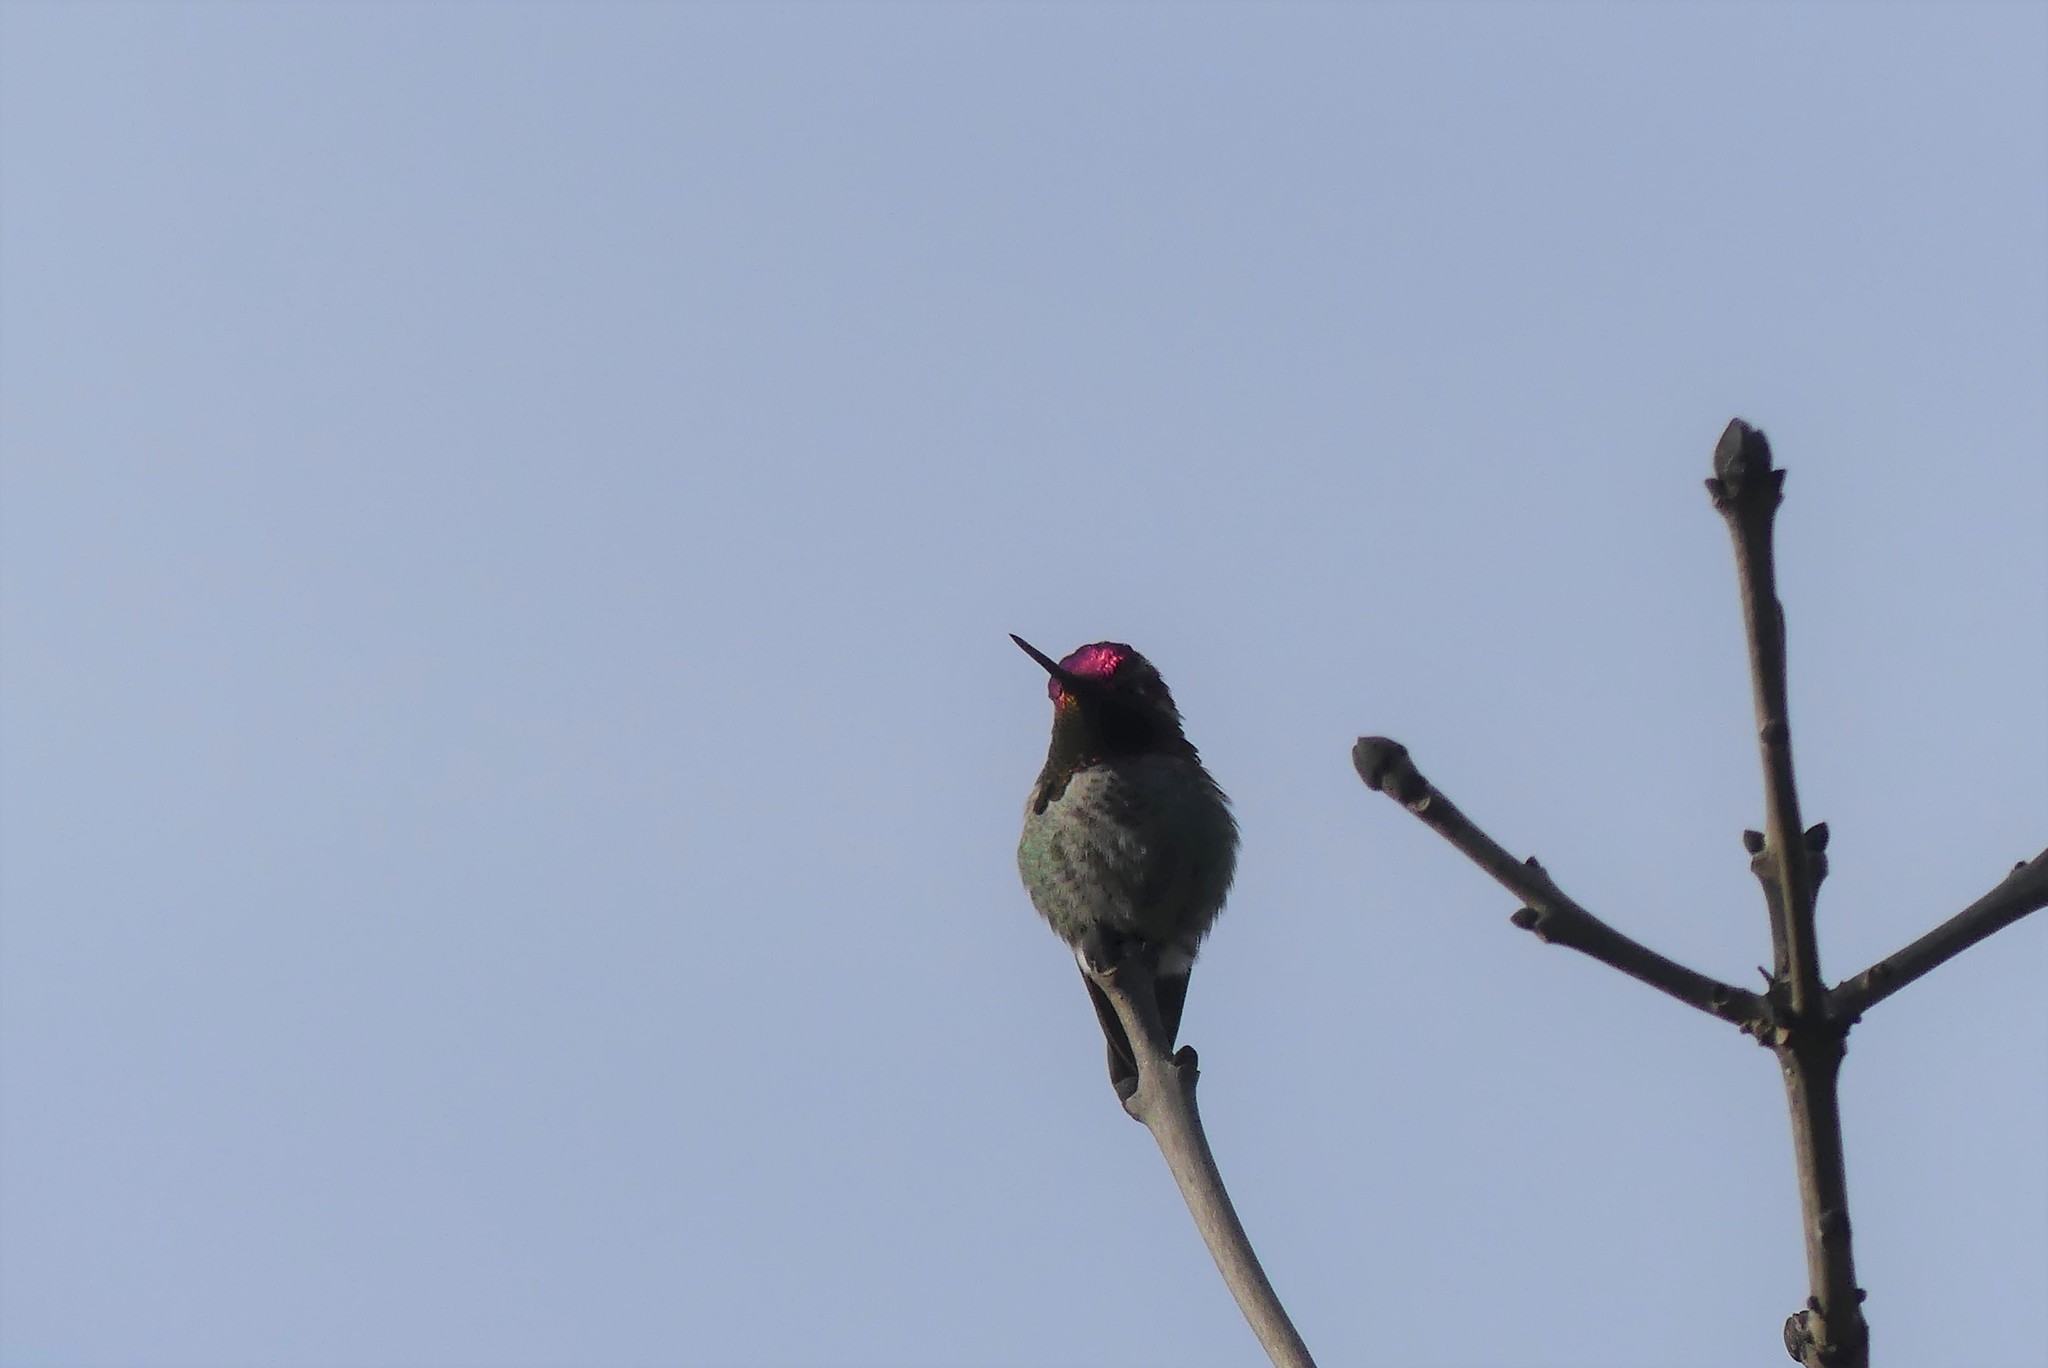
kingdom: Animalia
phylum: Chordata
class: Aves
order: Apodiformes
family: Trochilidae
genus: Calypte
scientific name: Calypte anna
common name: Anna's hummingbird
